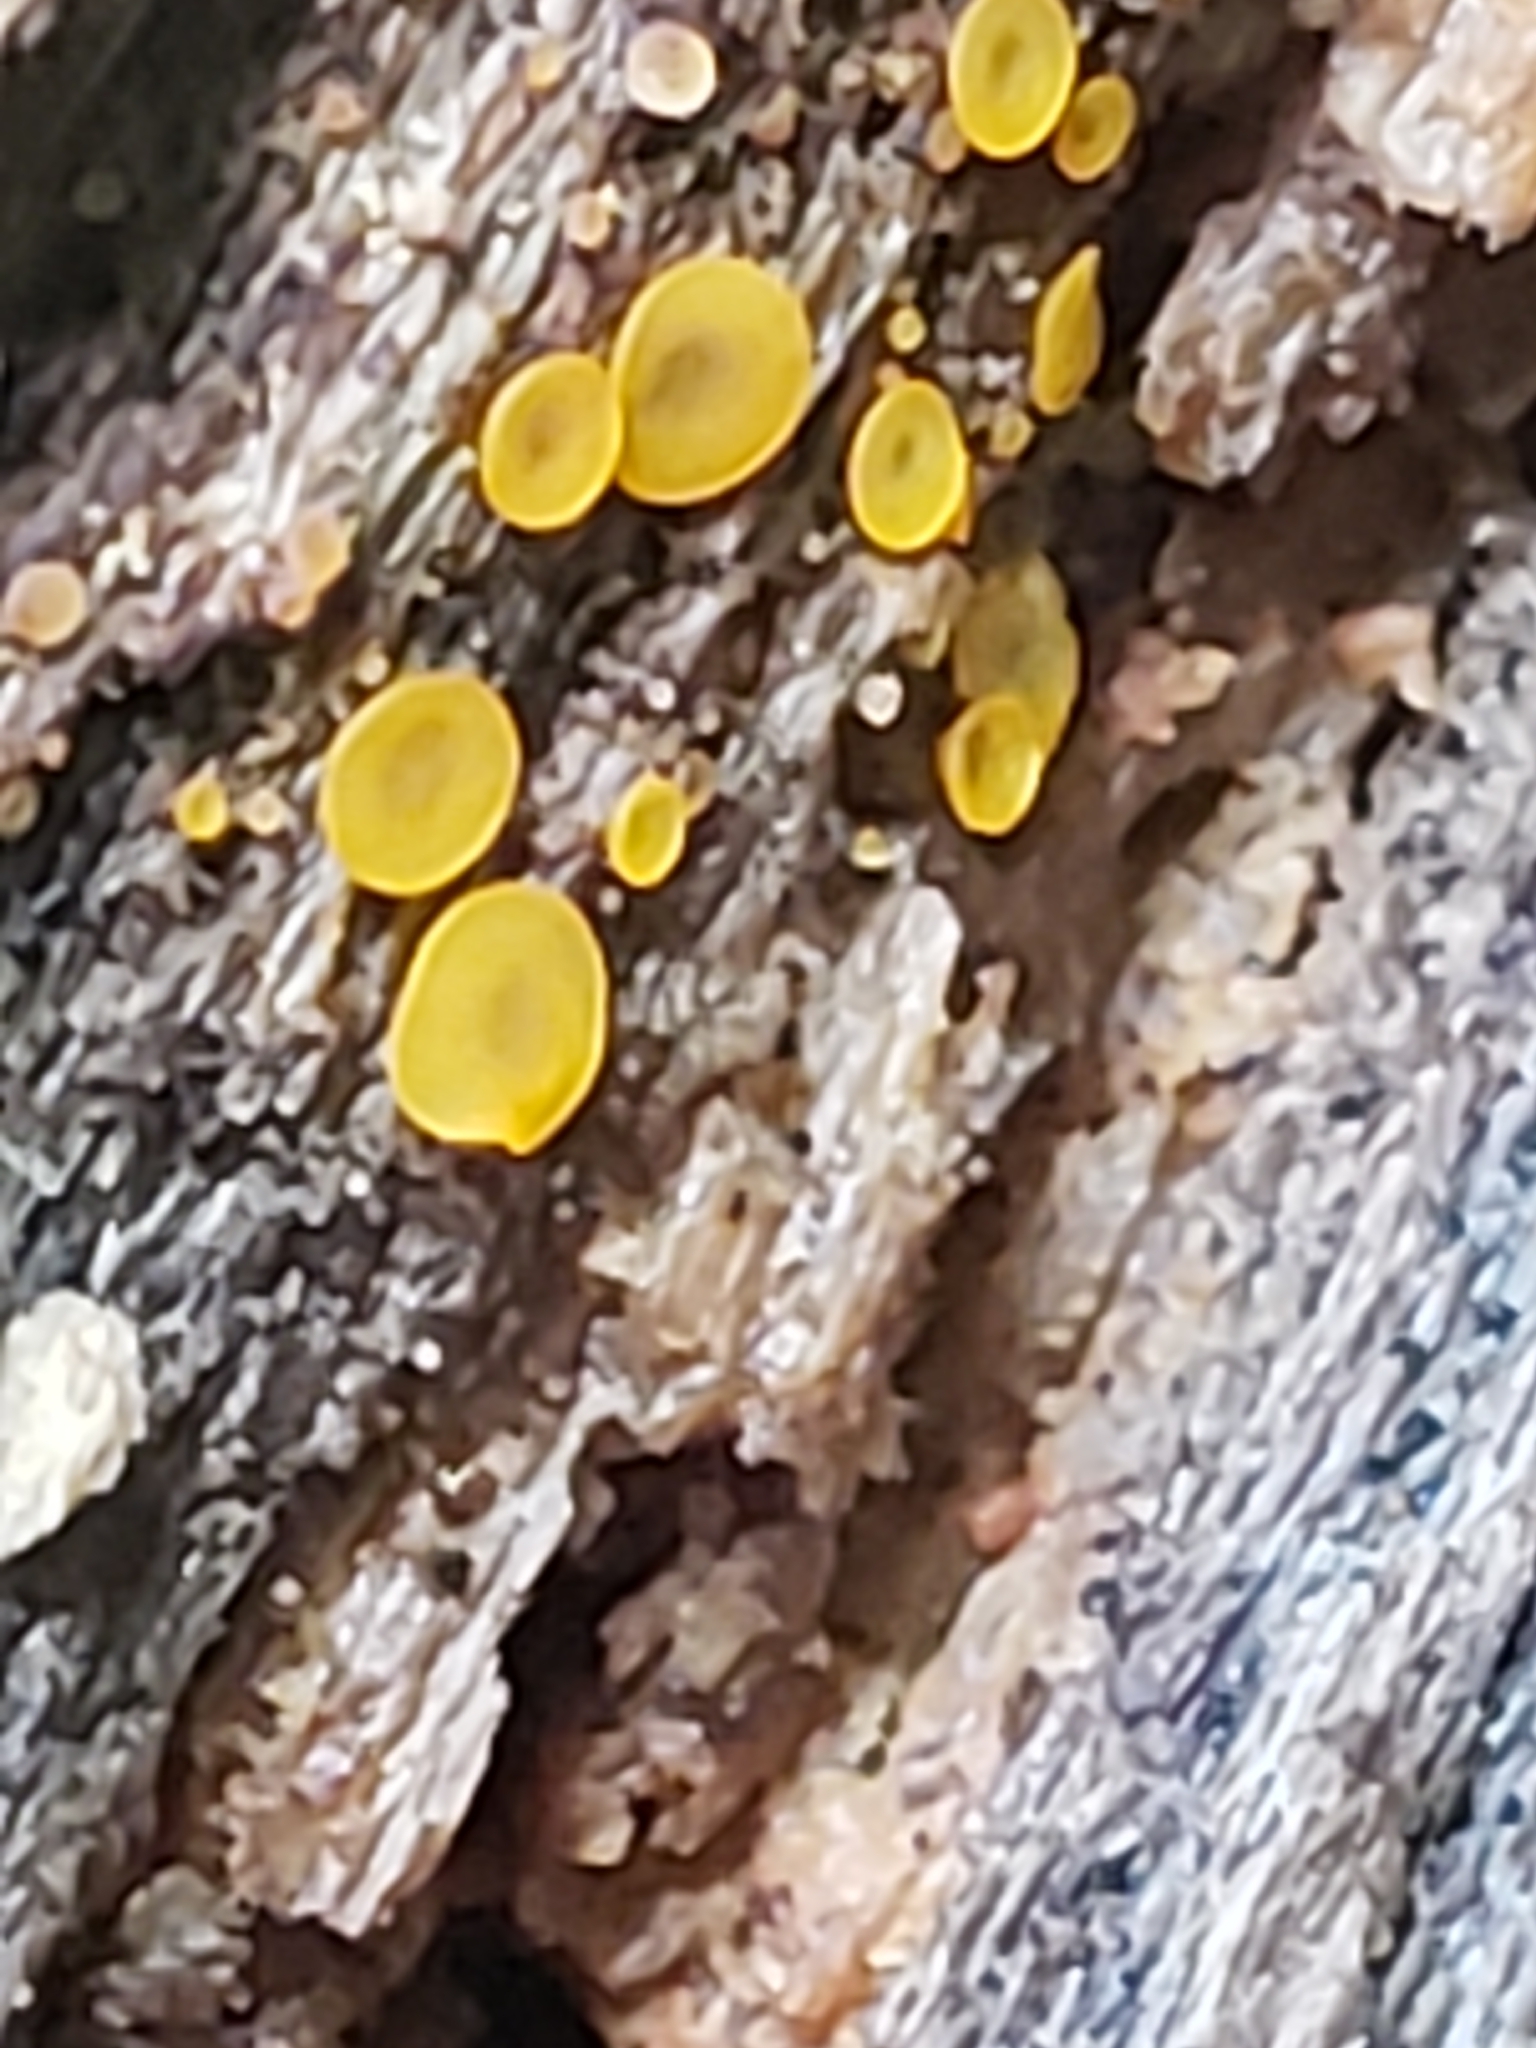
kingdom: Fungi
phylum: Ascomycota
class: Orbiliomycetes
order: Orbiliales
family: Orbiliaceae
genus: Orbilia
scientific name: Orbilia
